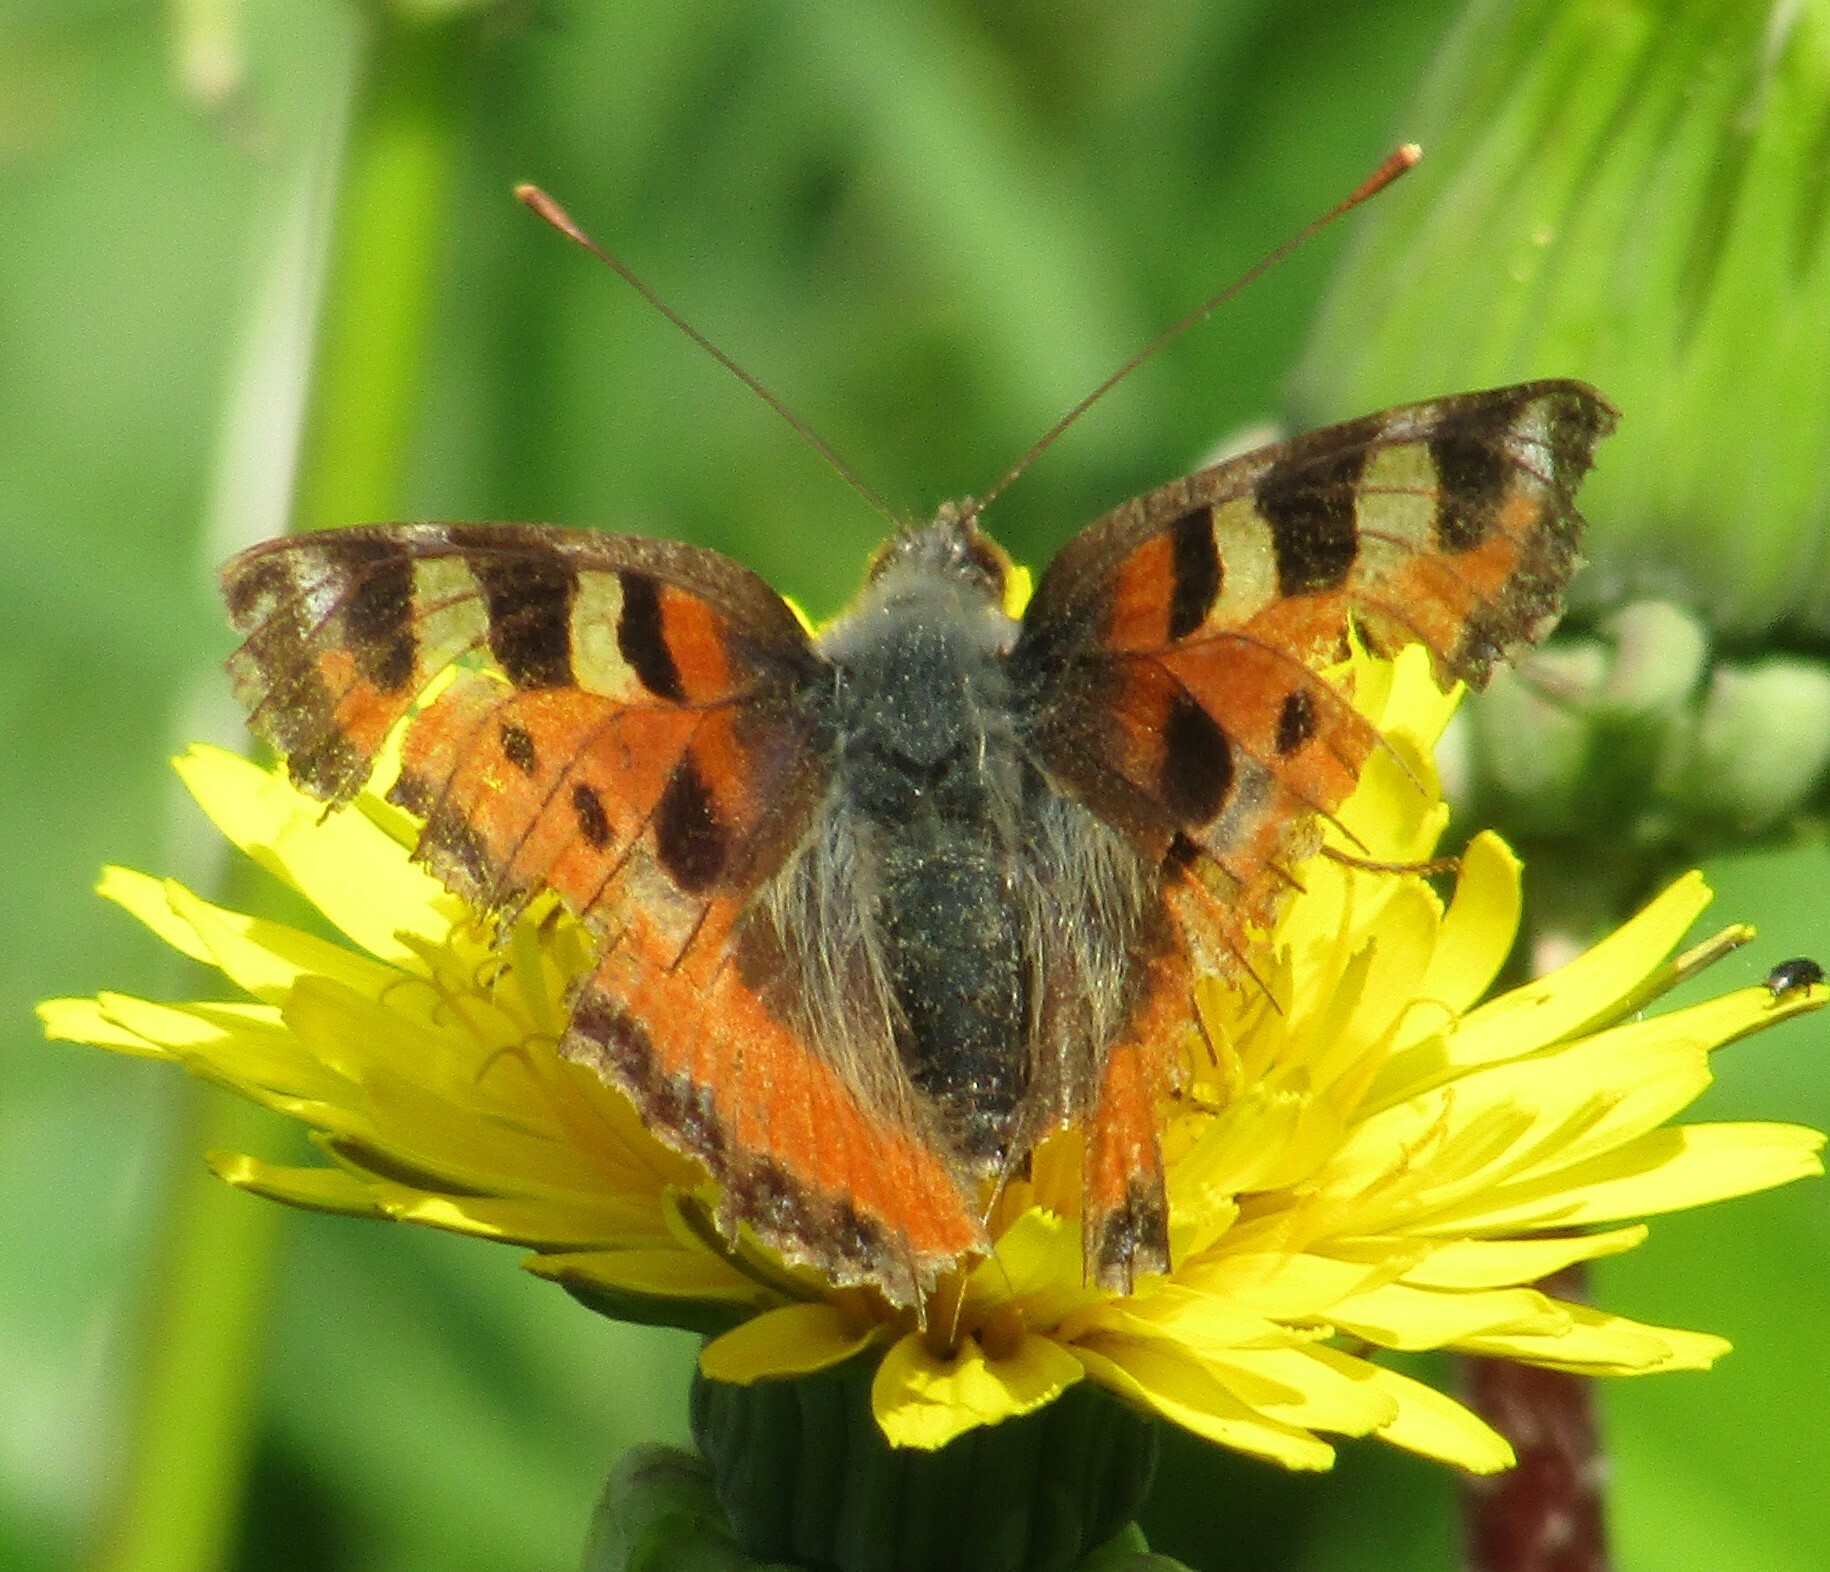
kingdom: Animalia
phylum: Arthropoda
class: Insecta
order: Lepidoptera
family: Nymphalidae
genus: Aglais
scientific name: Aglais urticae
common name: Small tortoiseshell
